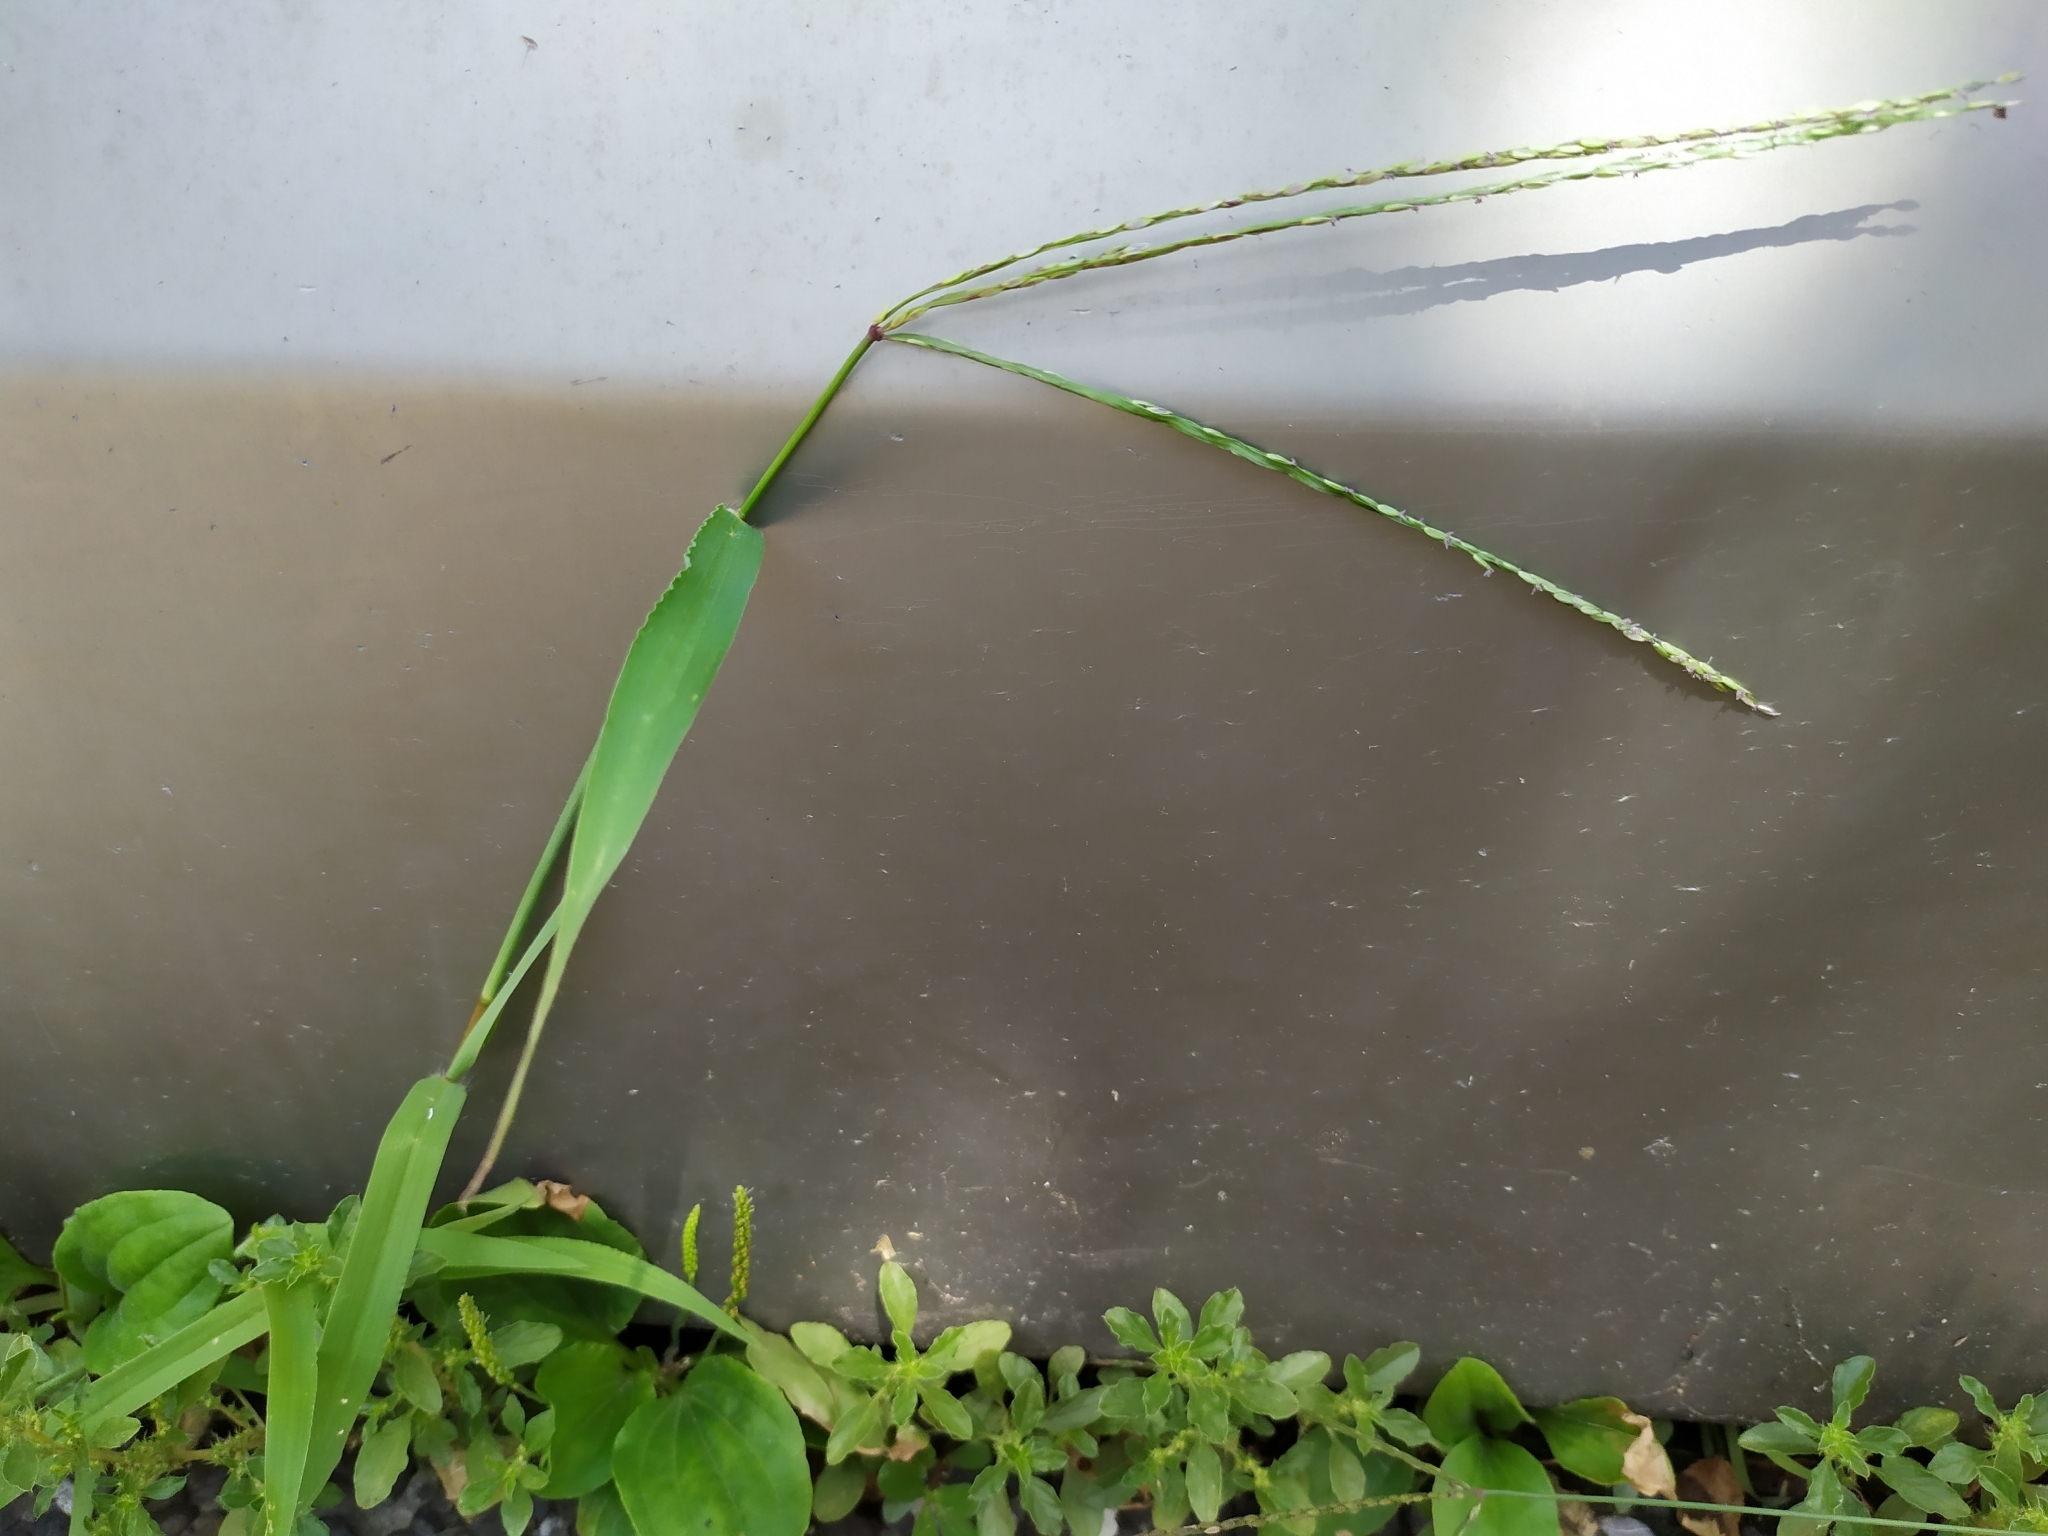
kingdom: Plantae
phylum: Tracheophyta
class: Liliopsida
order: Poales
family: Poaceae
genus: Digitaria
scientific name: Digitaria sanguinalis
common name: Hairy crabgrass
